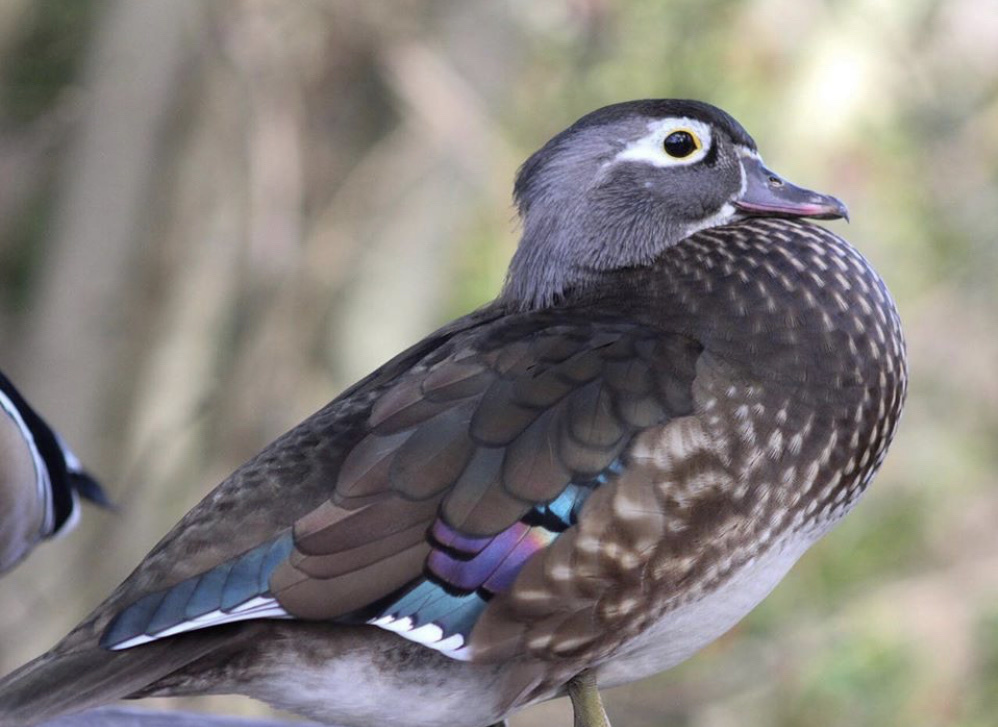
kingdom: Animalia
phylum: Chordata
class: Aves
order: Anseriformes
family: Anatidae
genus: Aix
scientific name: Aix sponsa
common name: Wood duck
